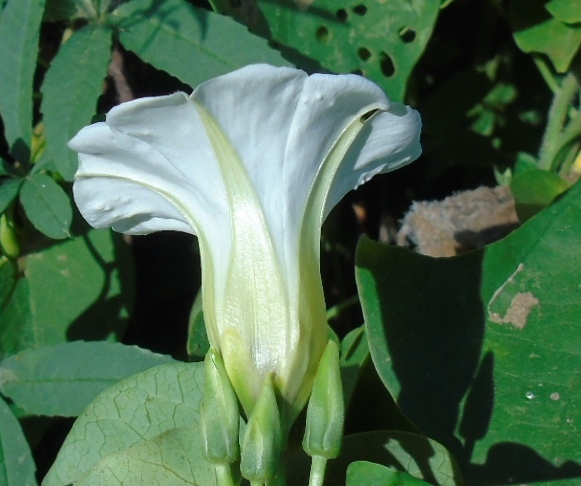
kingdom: Plantae
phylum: Tracheophyta
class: Magnoliopsida
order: Solanales
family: Convolvulaceae
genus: Ipomoea
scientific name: Ipomoea corymbosa
